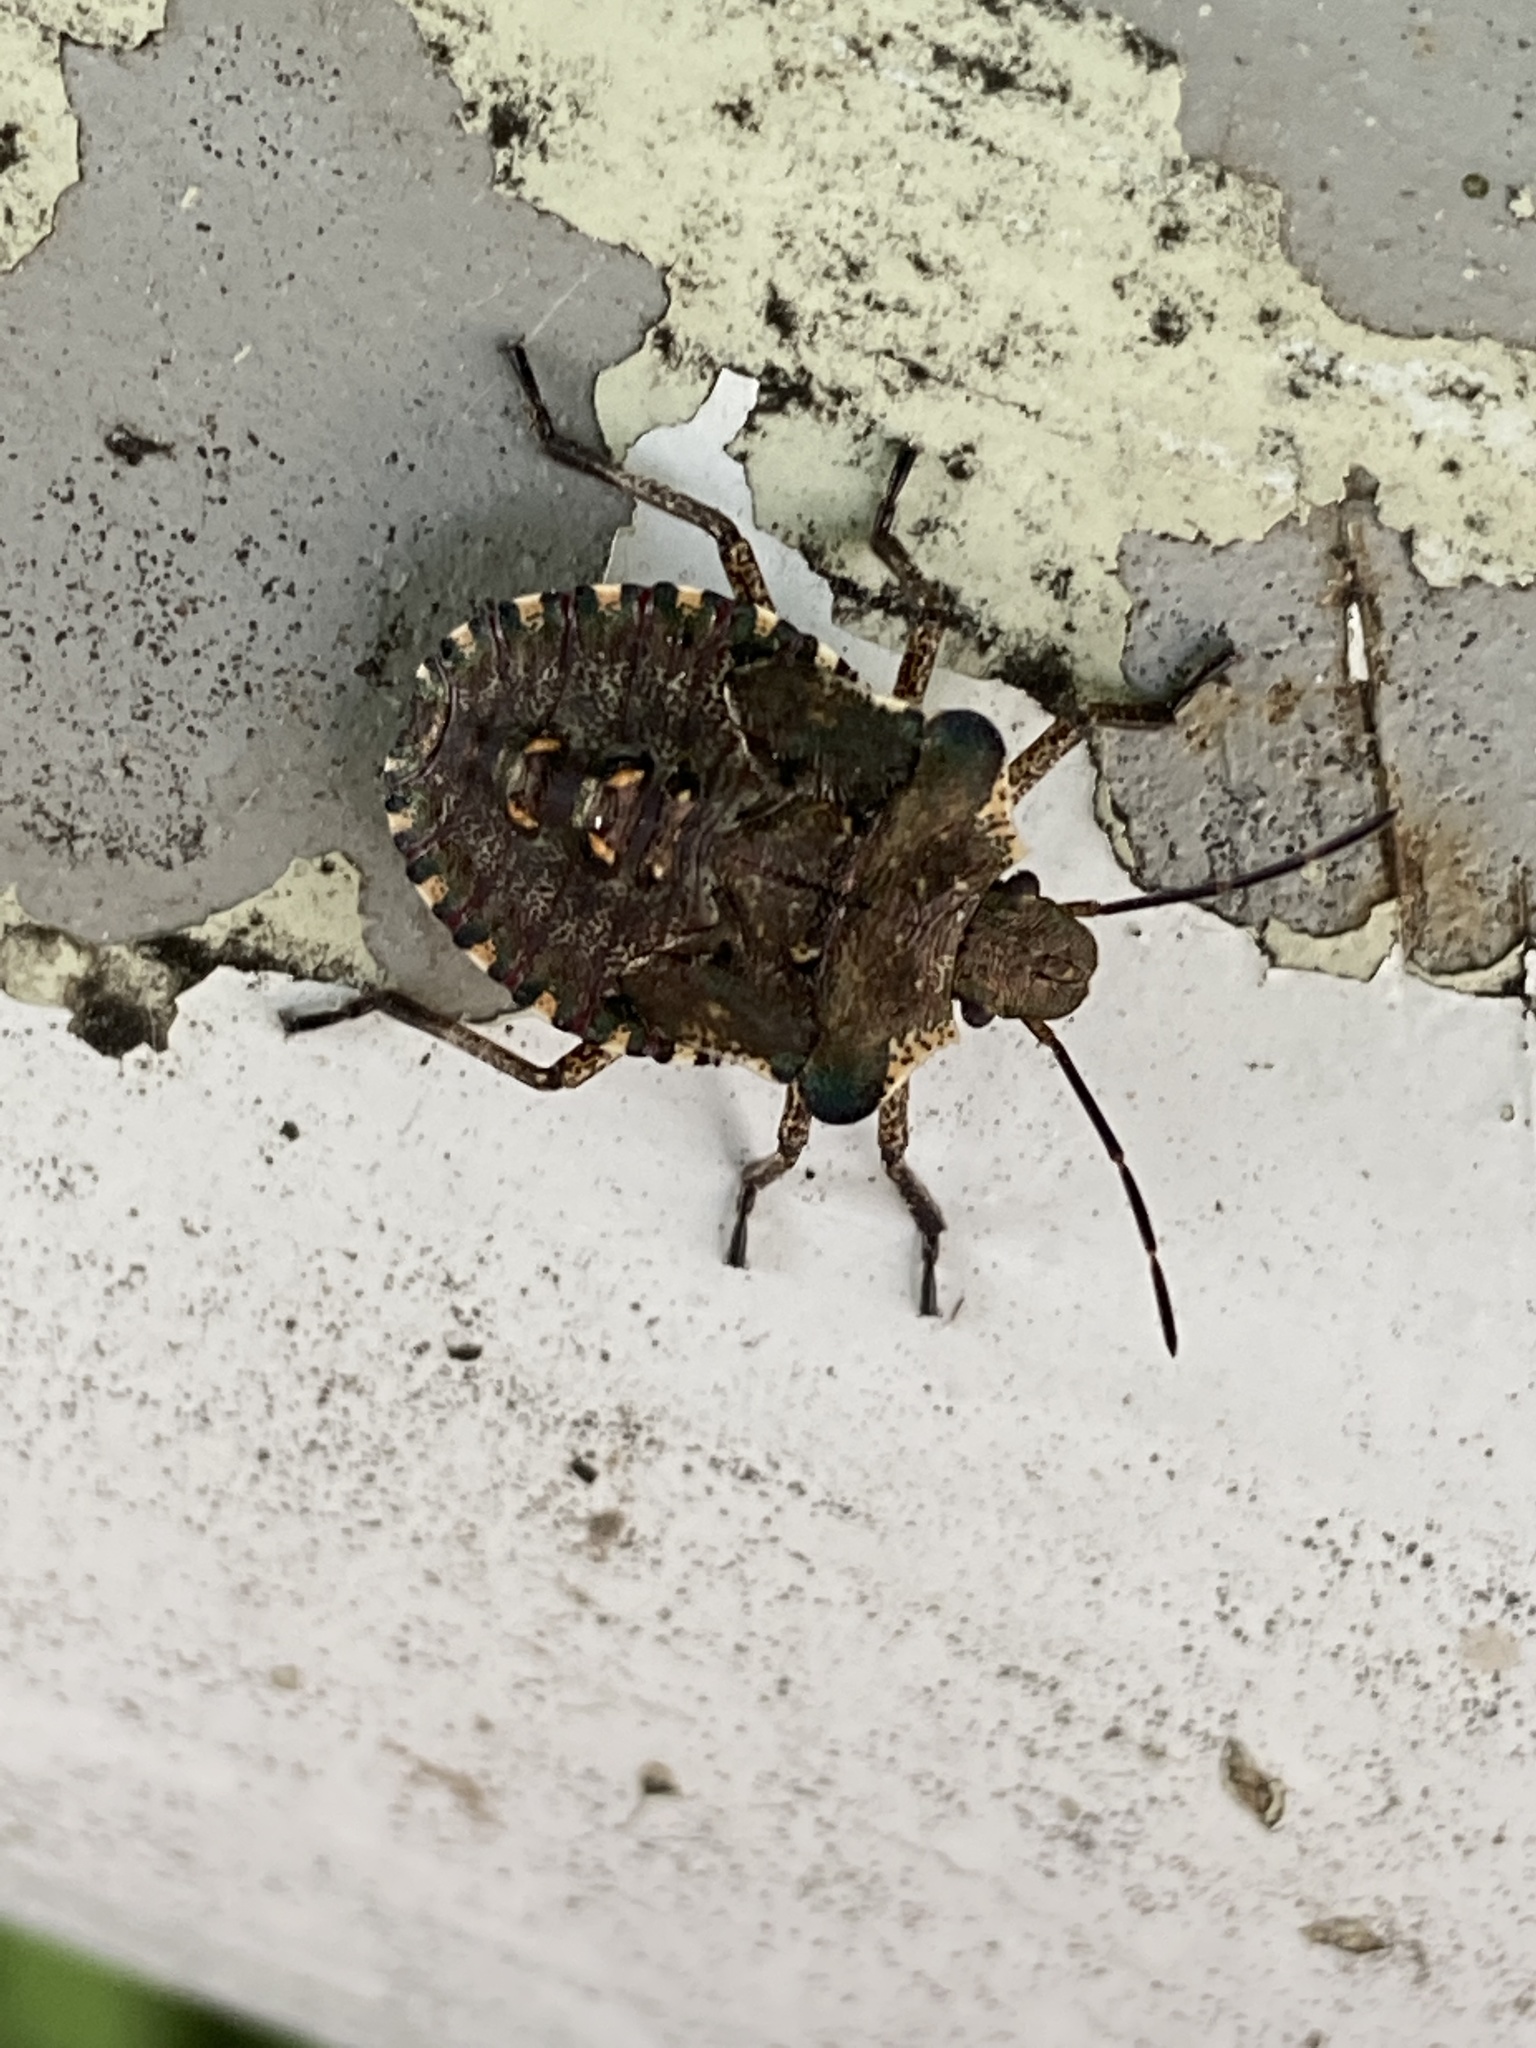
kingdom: Animalia
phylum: Arthropoda
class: Insecta
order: Hemiptera
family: Pentatomidae
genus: Pentatoma
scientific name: Pentatoma rufipes
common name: Forest bug
